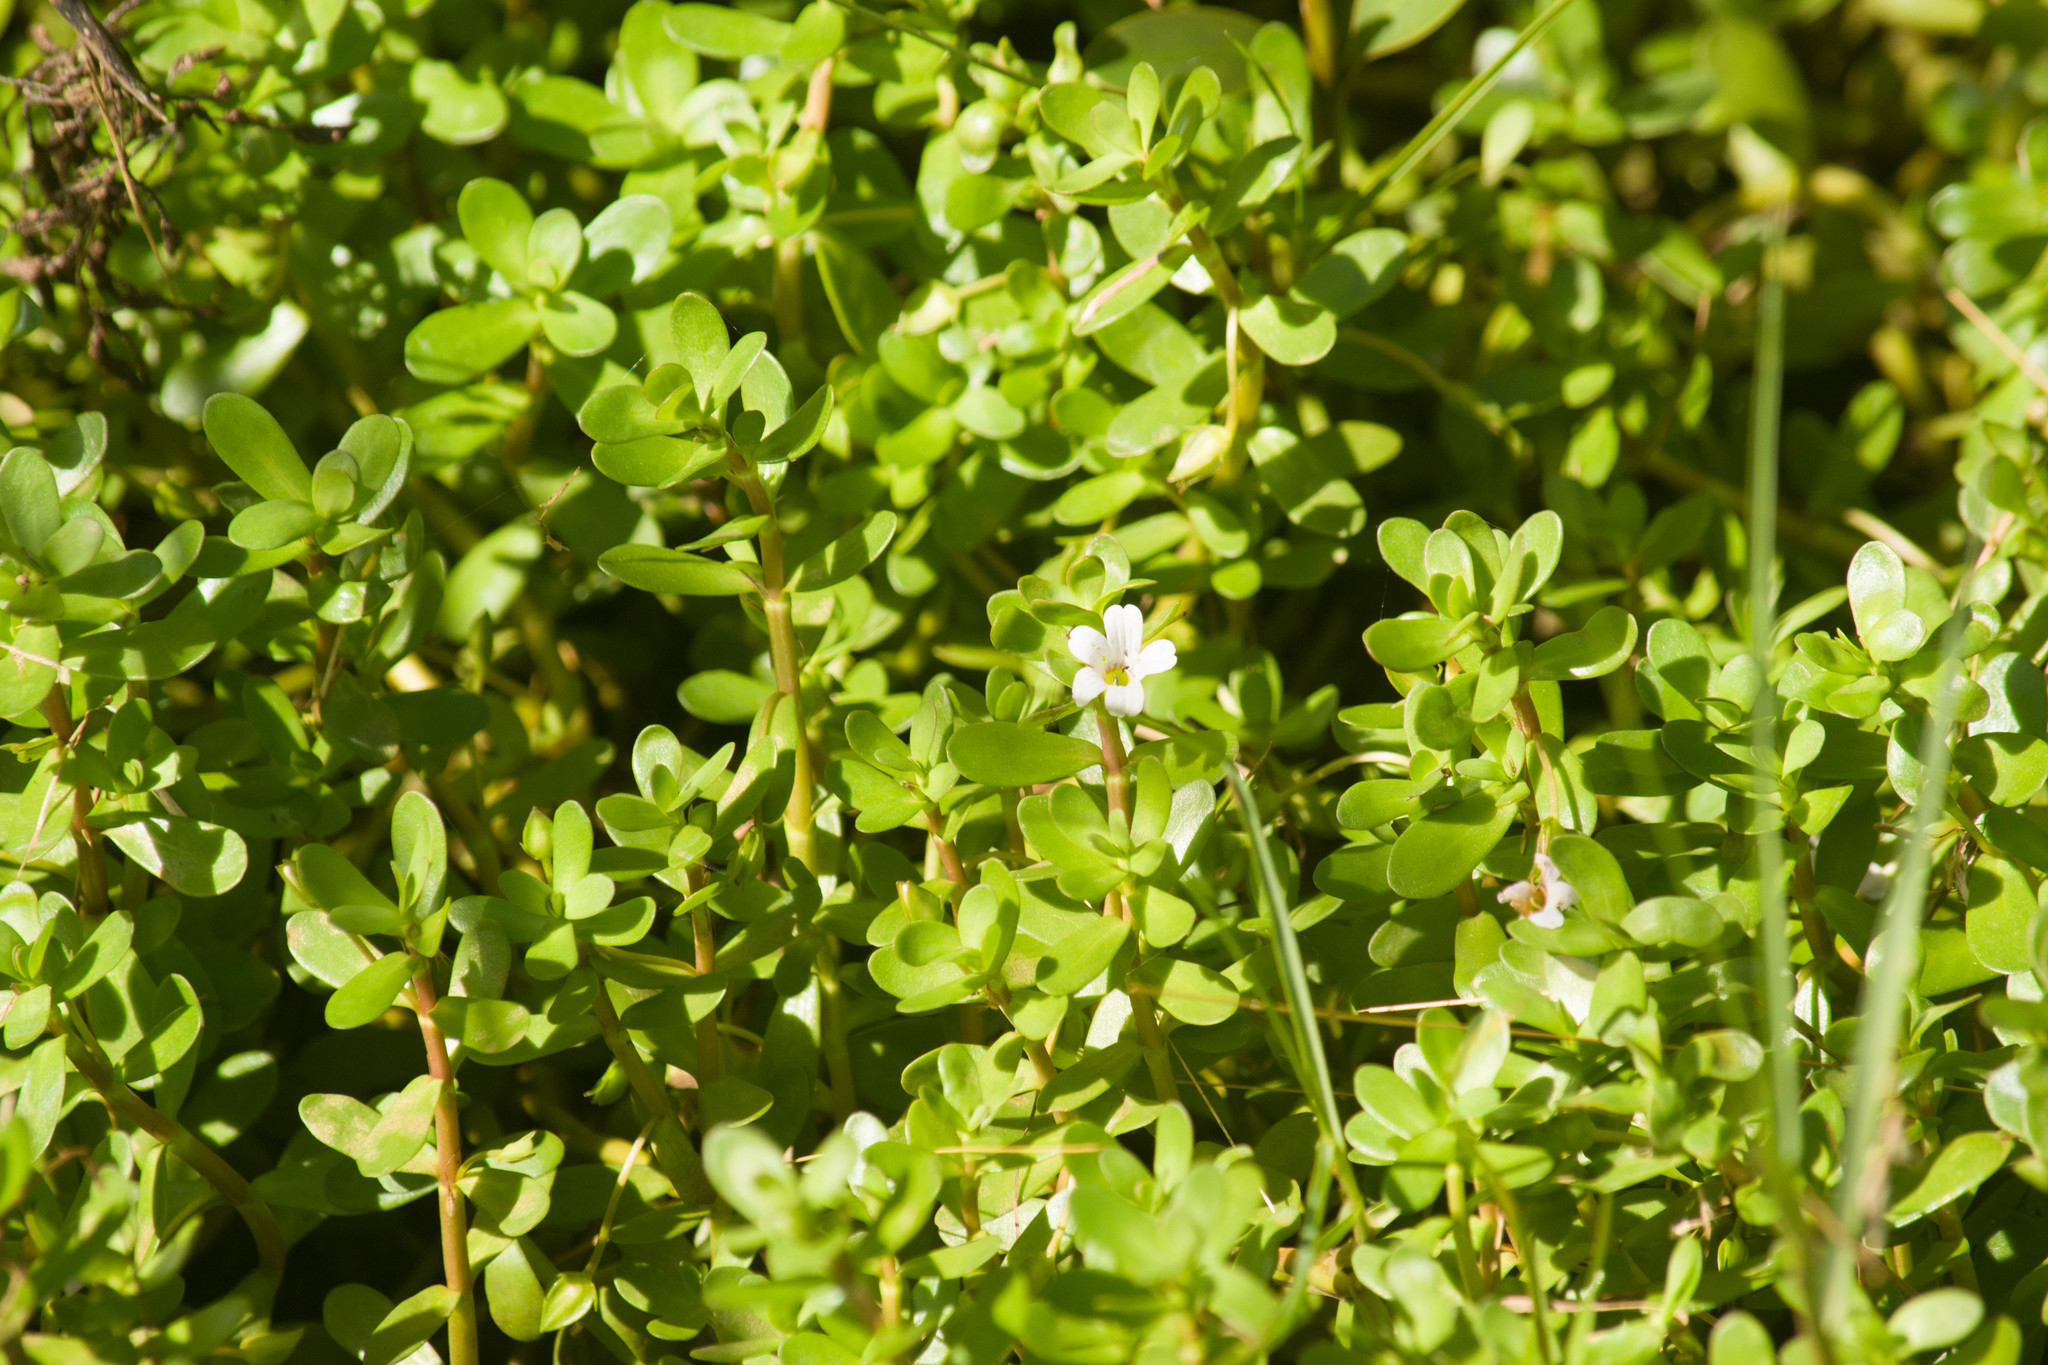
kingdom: Plantae
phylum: Tracheophyta
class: Magnoliopsida
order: Lamiales
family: Plantaginaceae
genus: Bacopa
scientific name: Bacopa monnieri
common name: Indian-pennywort
